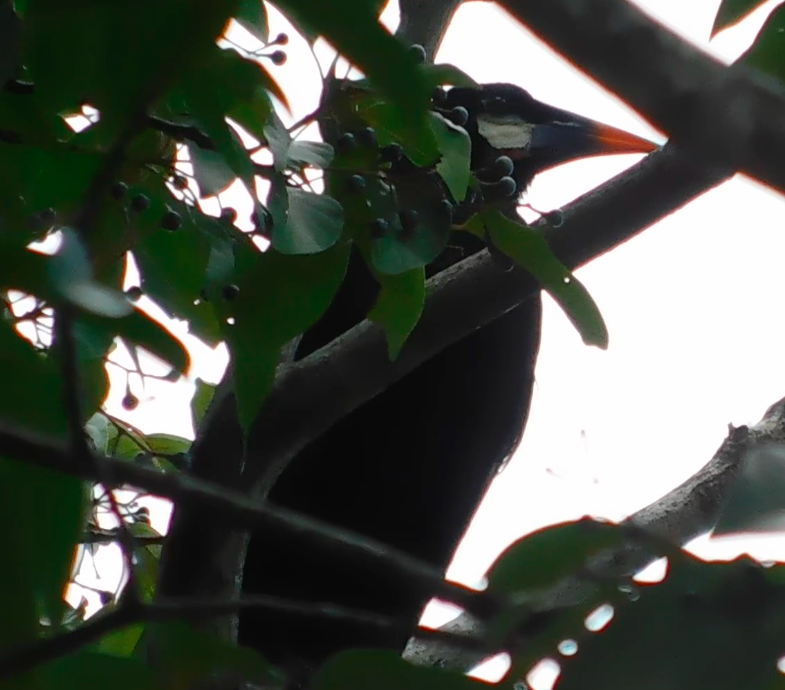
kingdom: Animalia
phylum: Chordata
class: Aves
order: Passeriformes
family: Icteridae
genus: Psarocolius
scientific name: Psarocolius montezuma
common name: Montezuma oropendola
